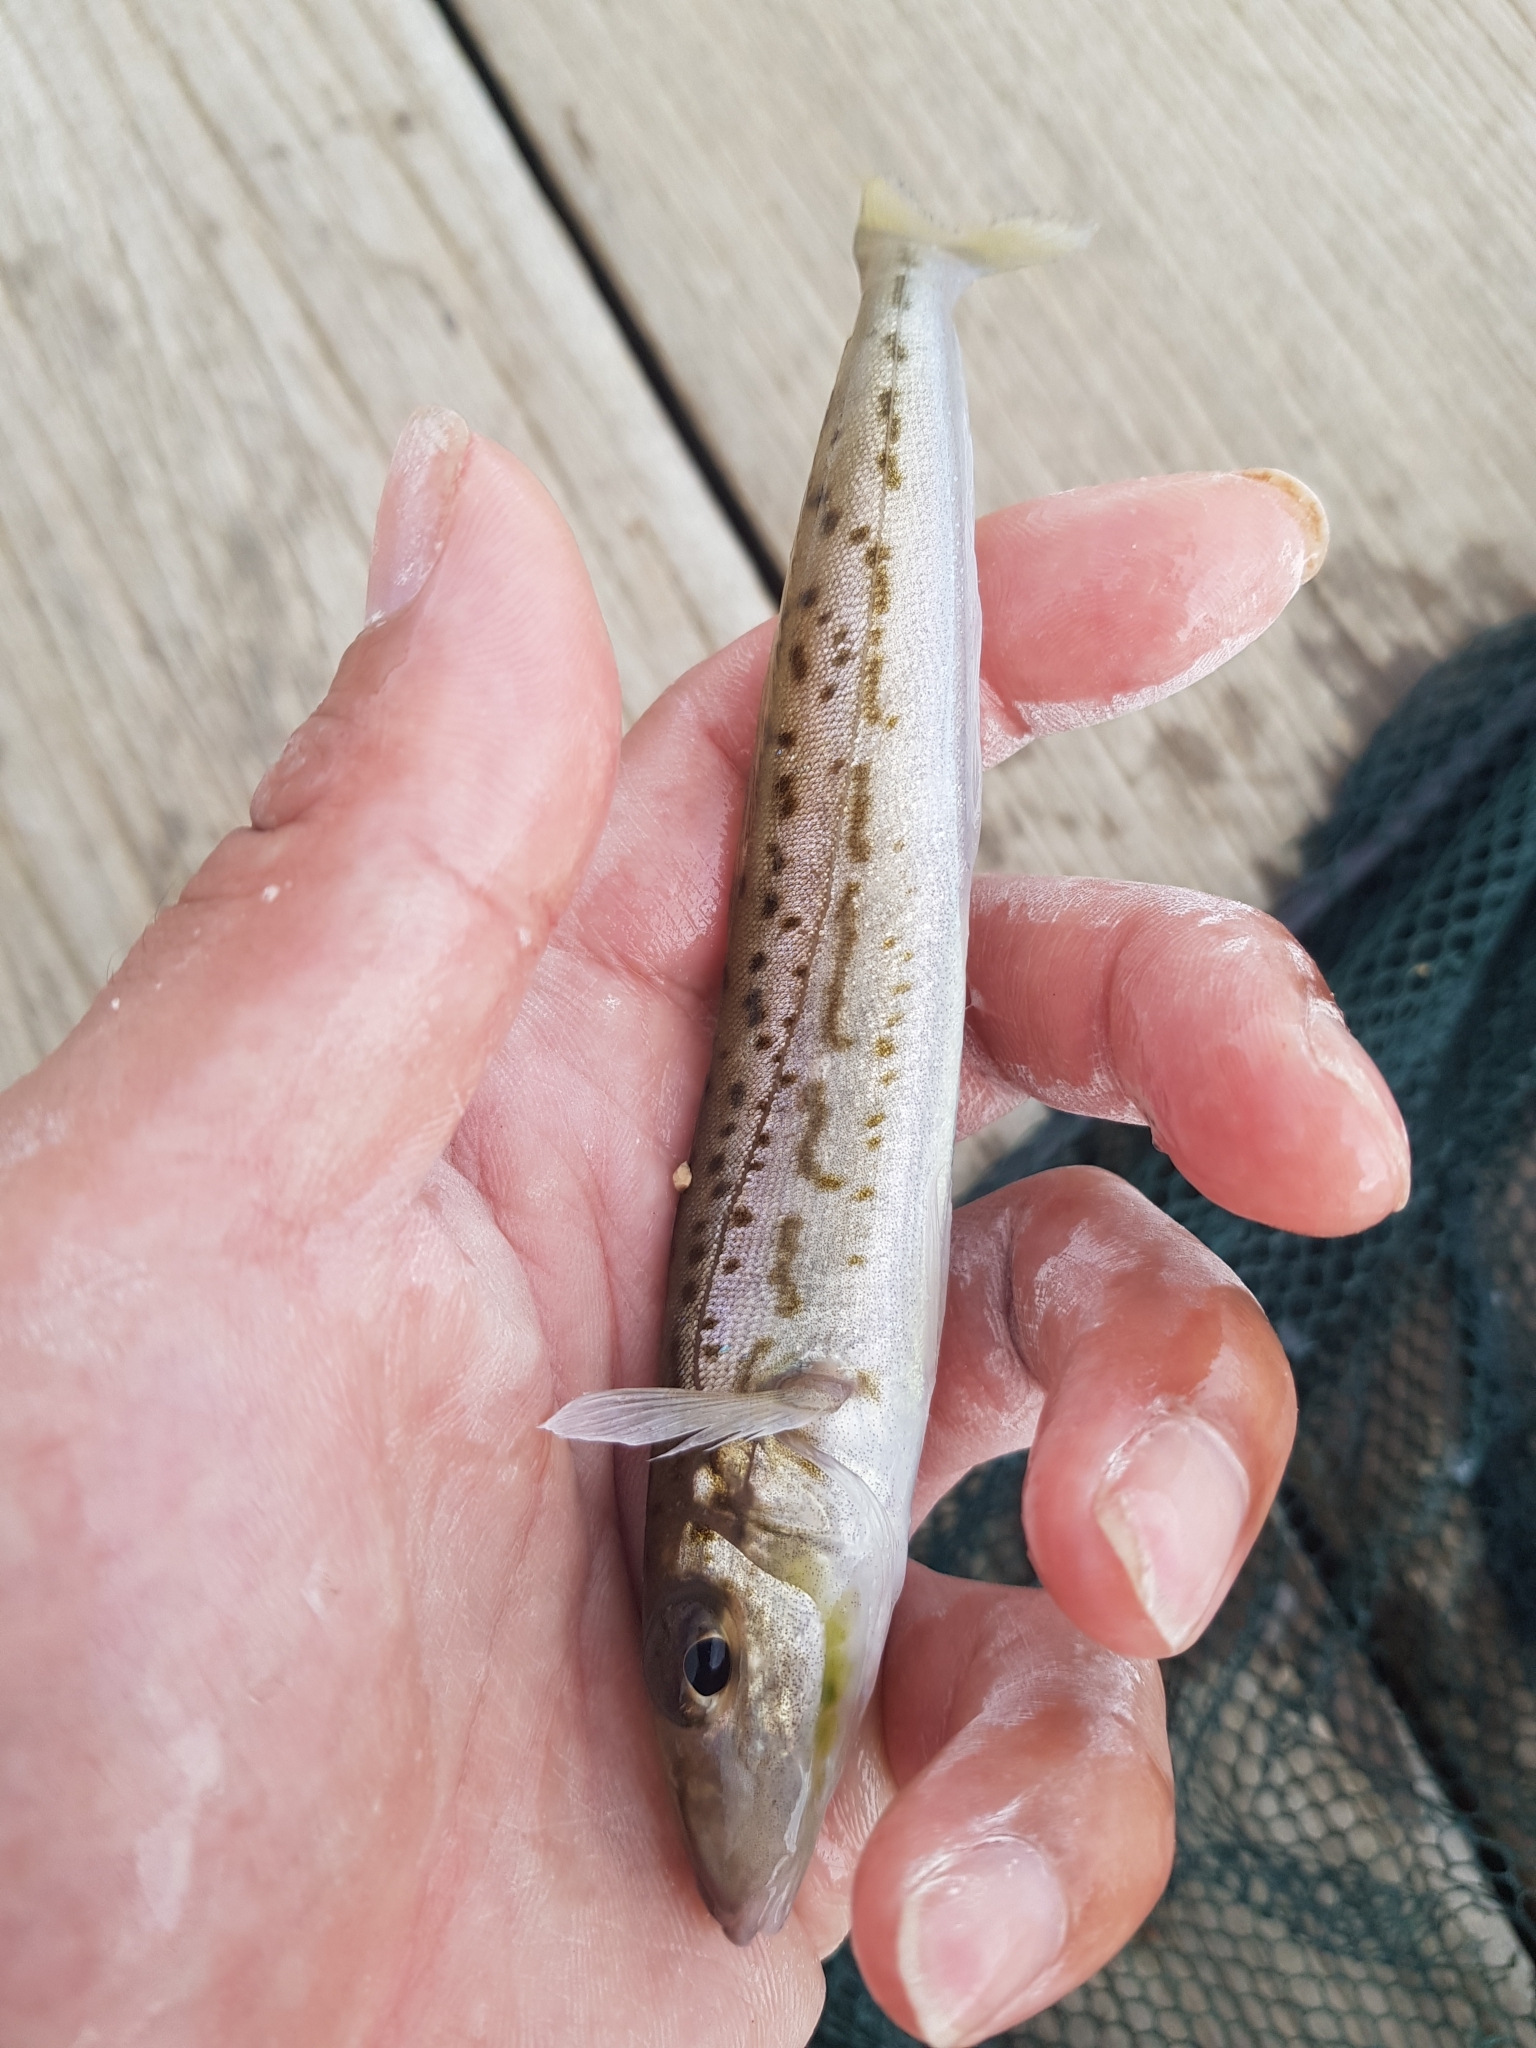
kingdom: Animalia
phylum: Chordata
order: Perciformes
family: Sillaginidae
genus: Sillaginodes
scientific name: Sillaginodes punctatus
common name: King george whiting
